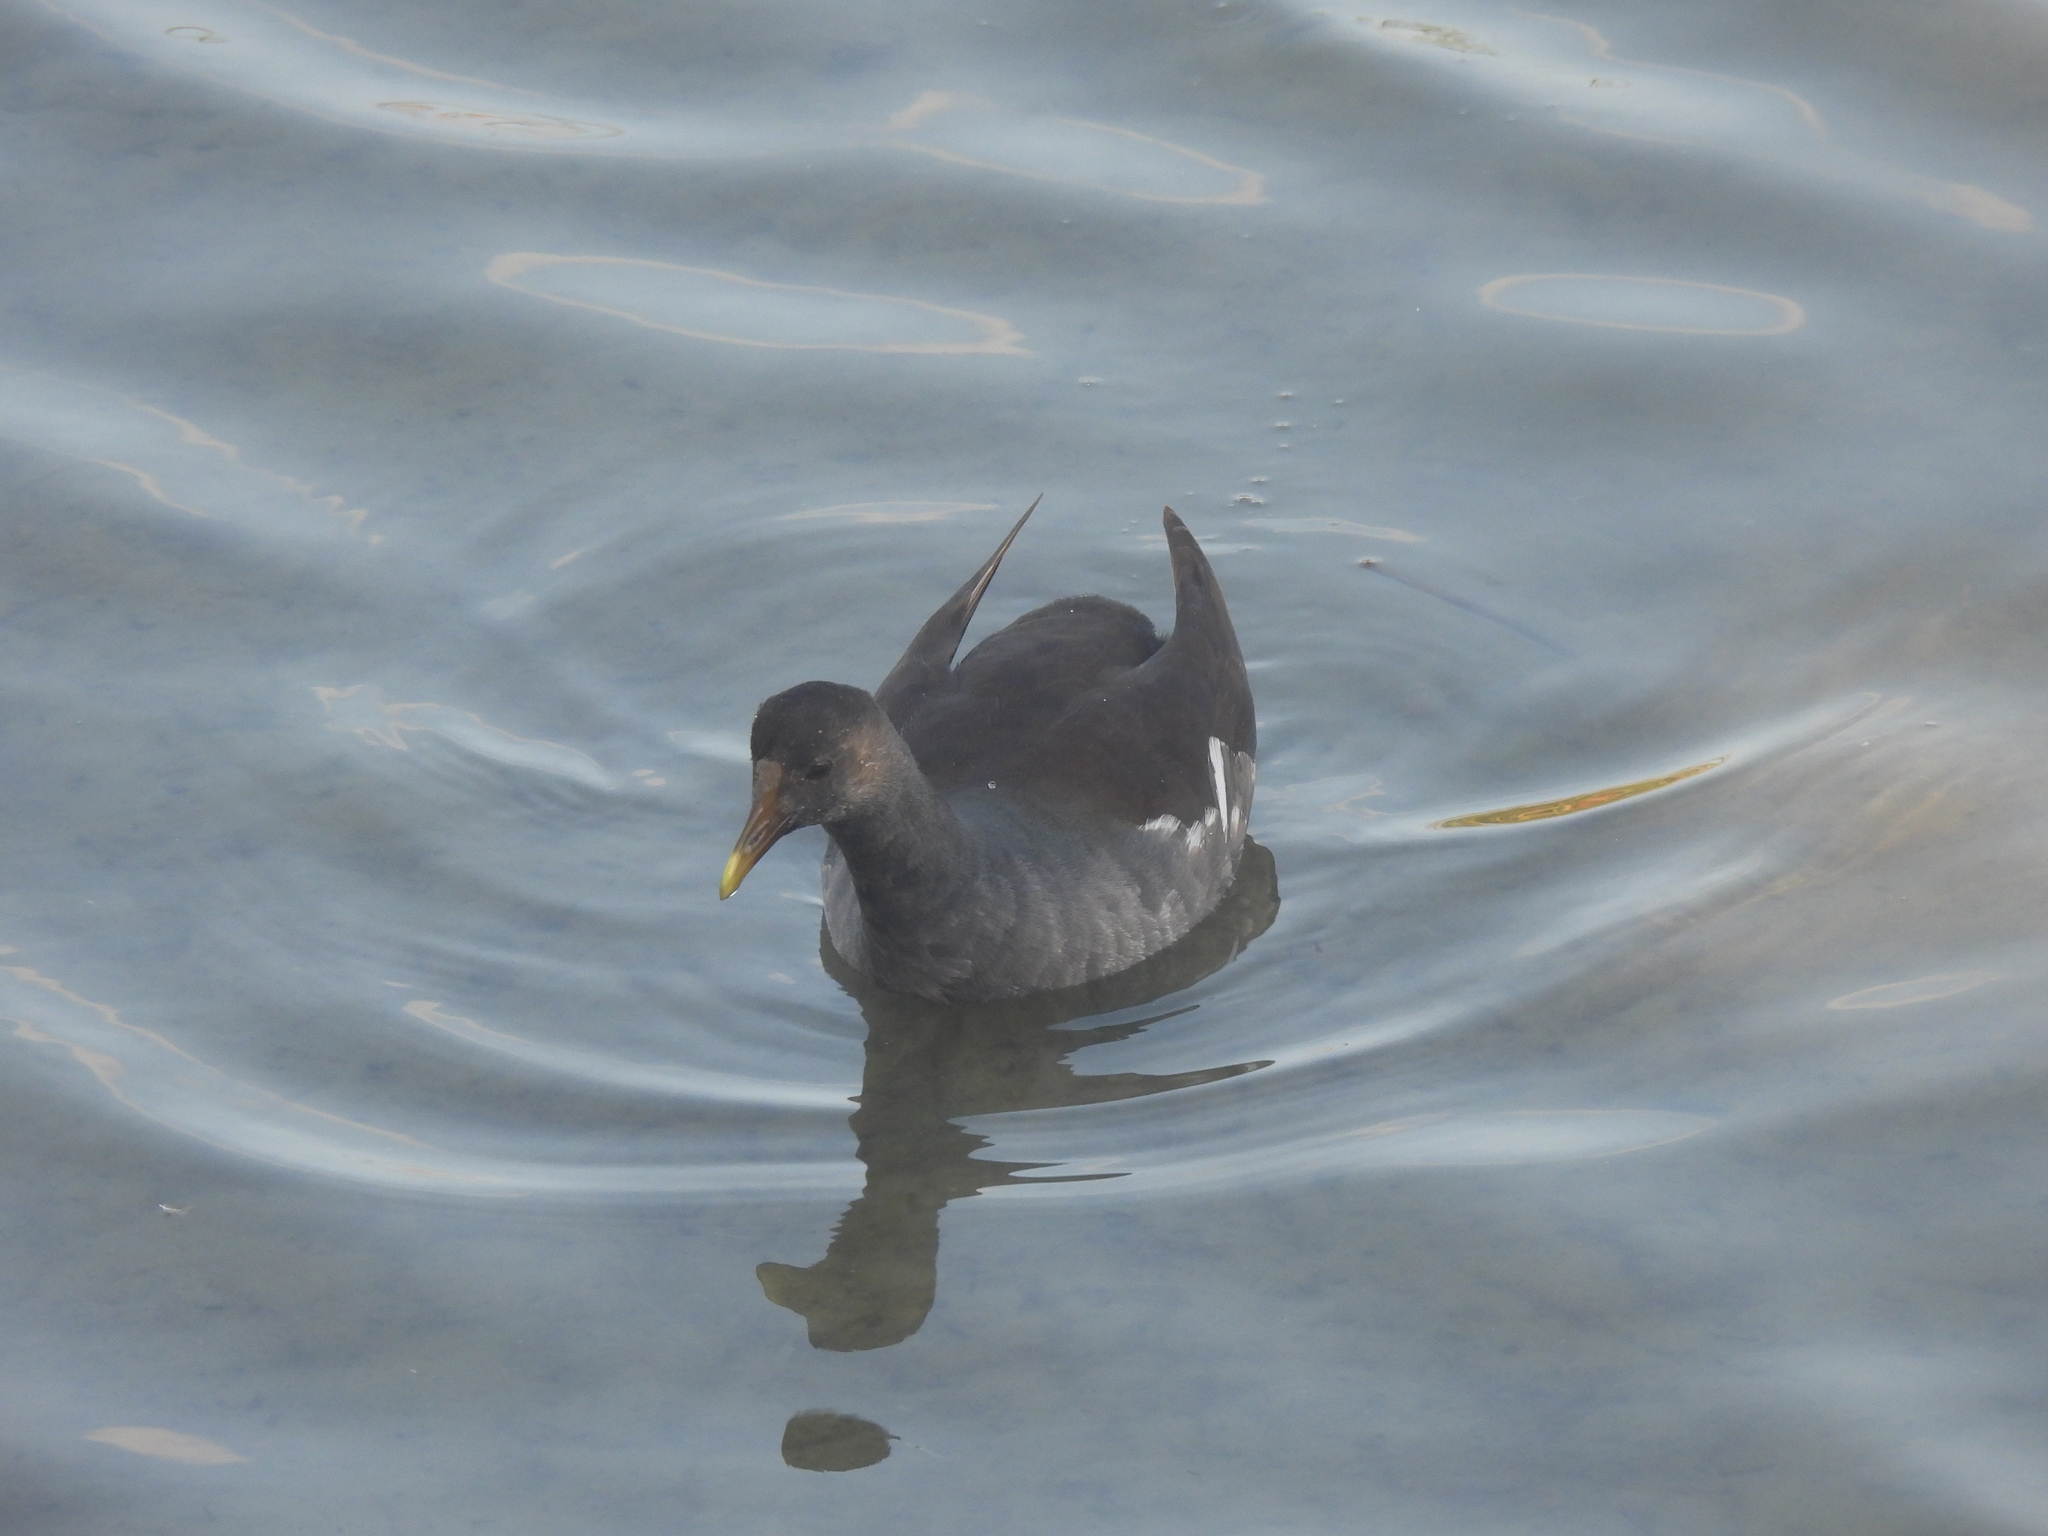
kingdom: Animalia
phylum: Chordata
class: Aves
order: Gruiformes
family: Rallidae
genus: Gallinula
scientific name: Gallinula chloropus
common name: Common moorhen
